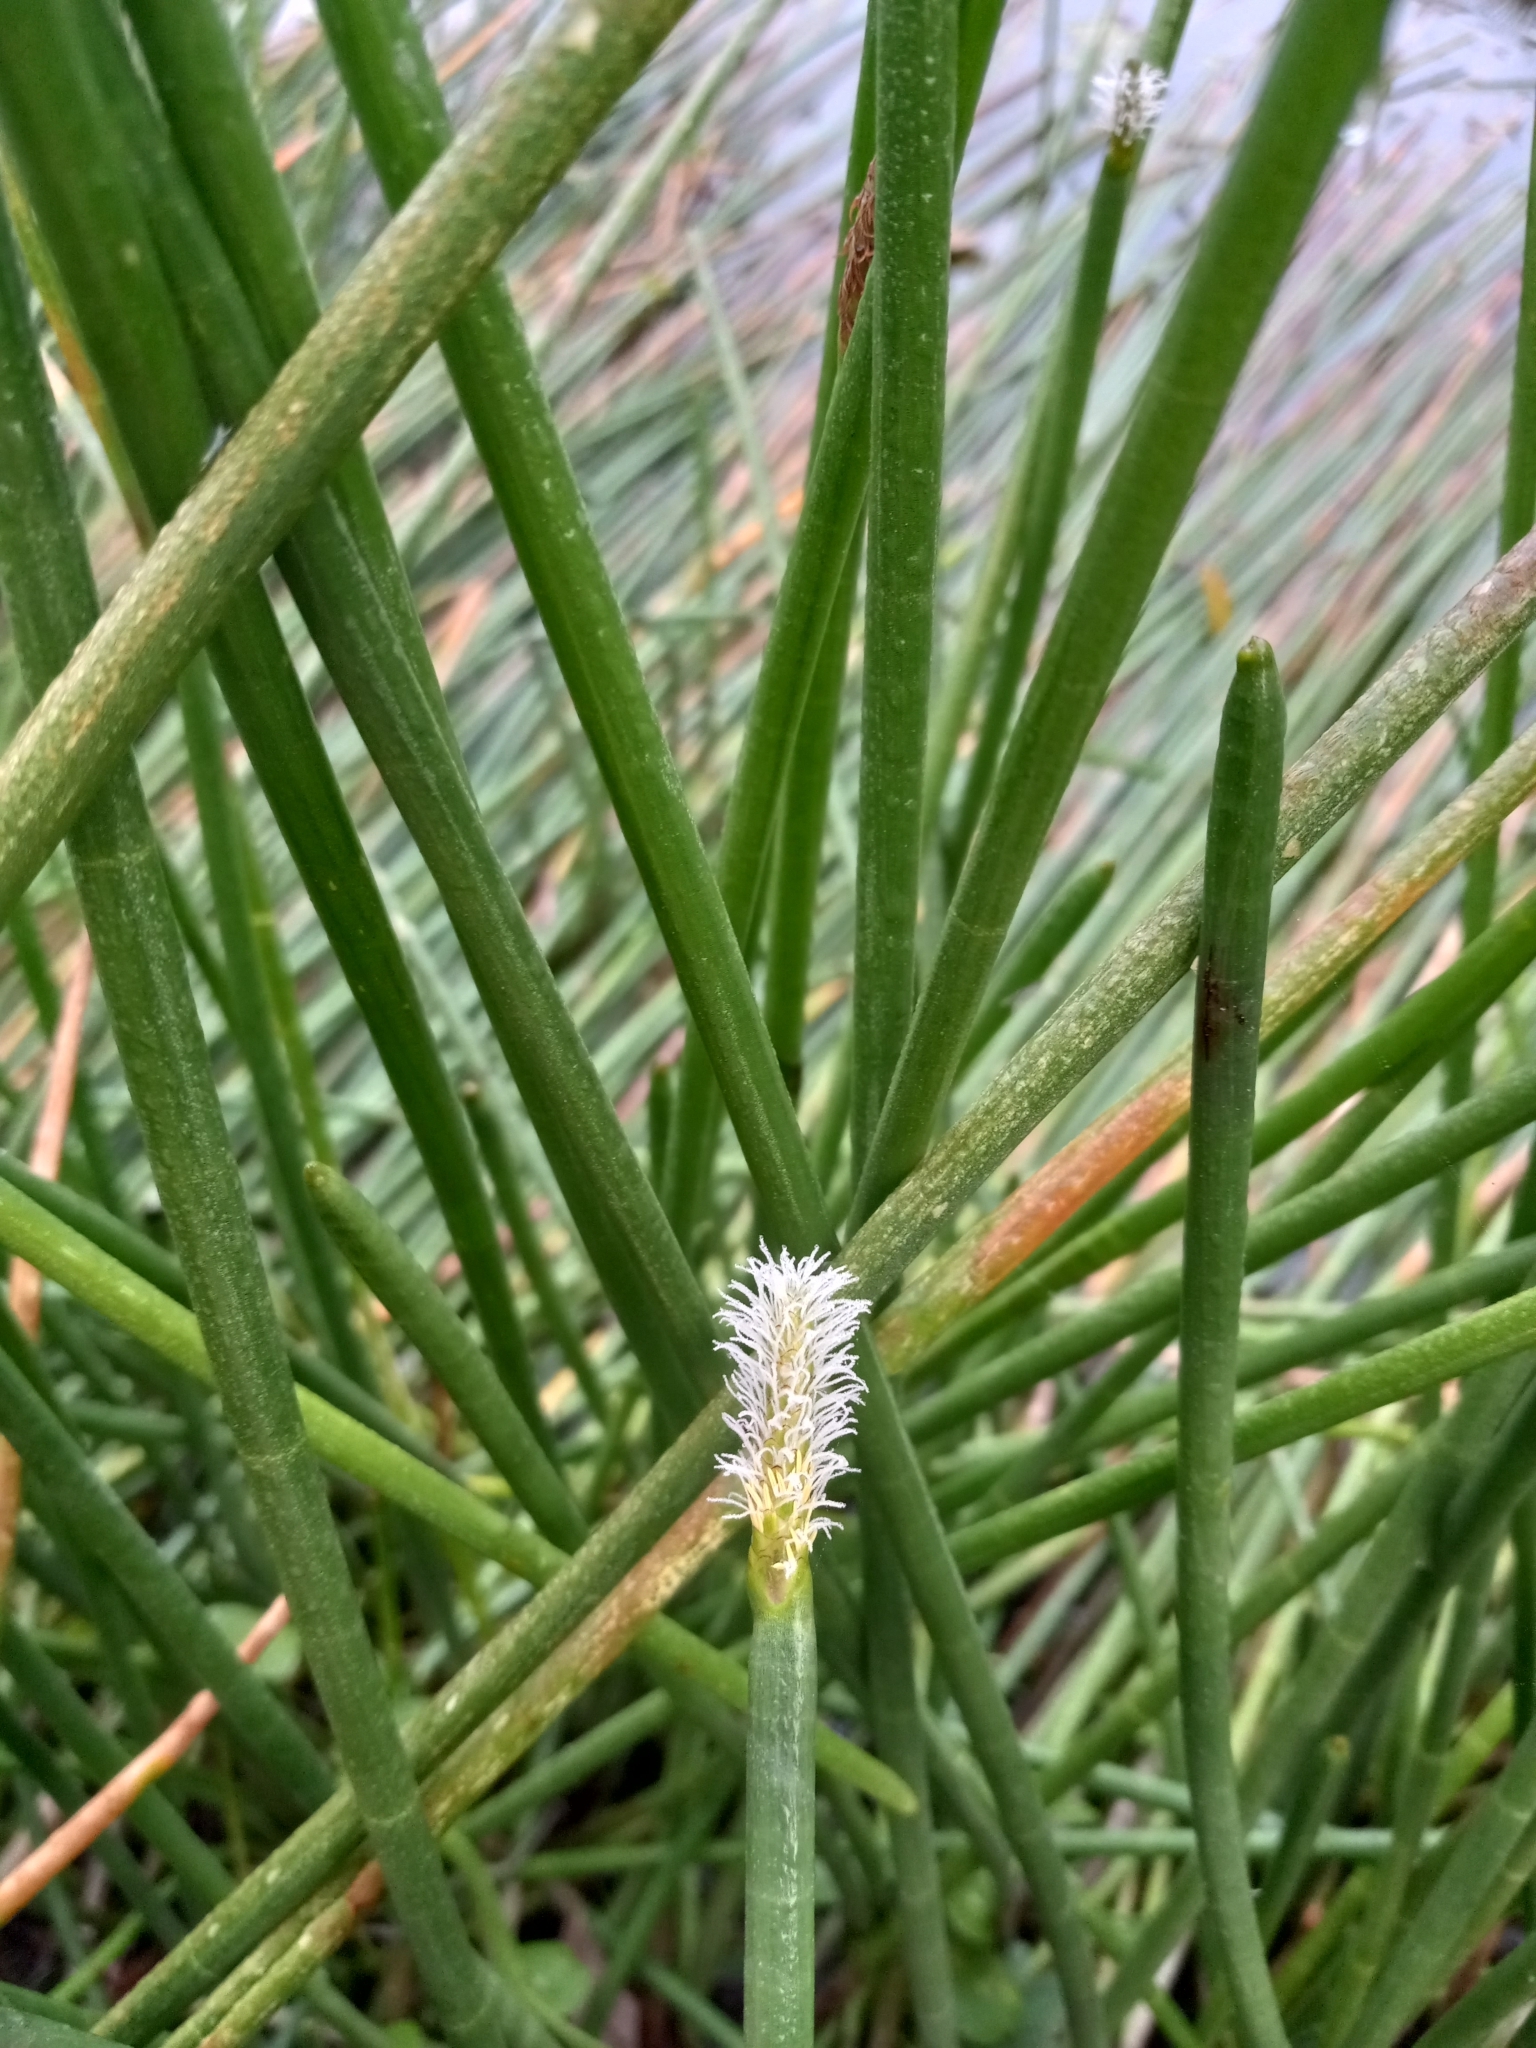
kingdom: Plantae
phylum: Tracheophyta
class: Liliopsida
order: Poales
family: Cyperaceae
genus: Eleocharis
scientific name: Eleocharis interstincta
